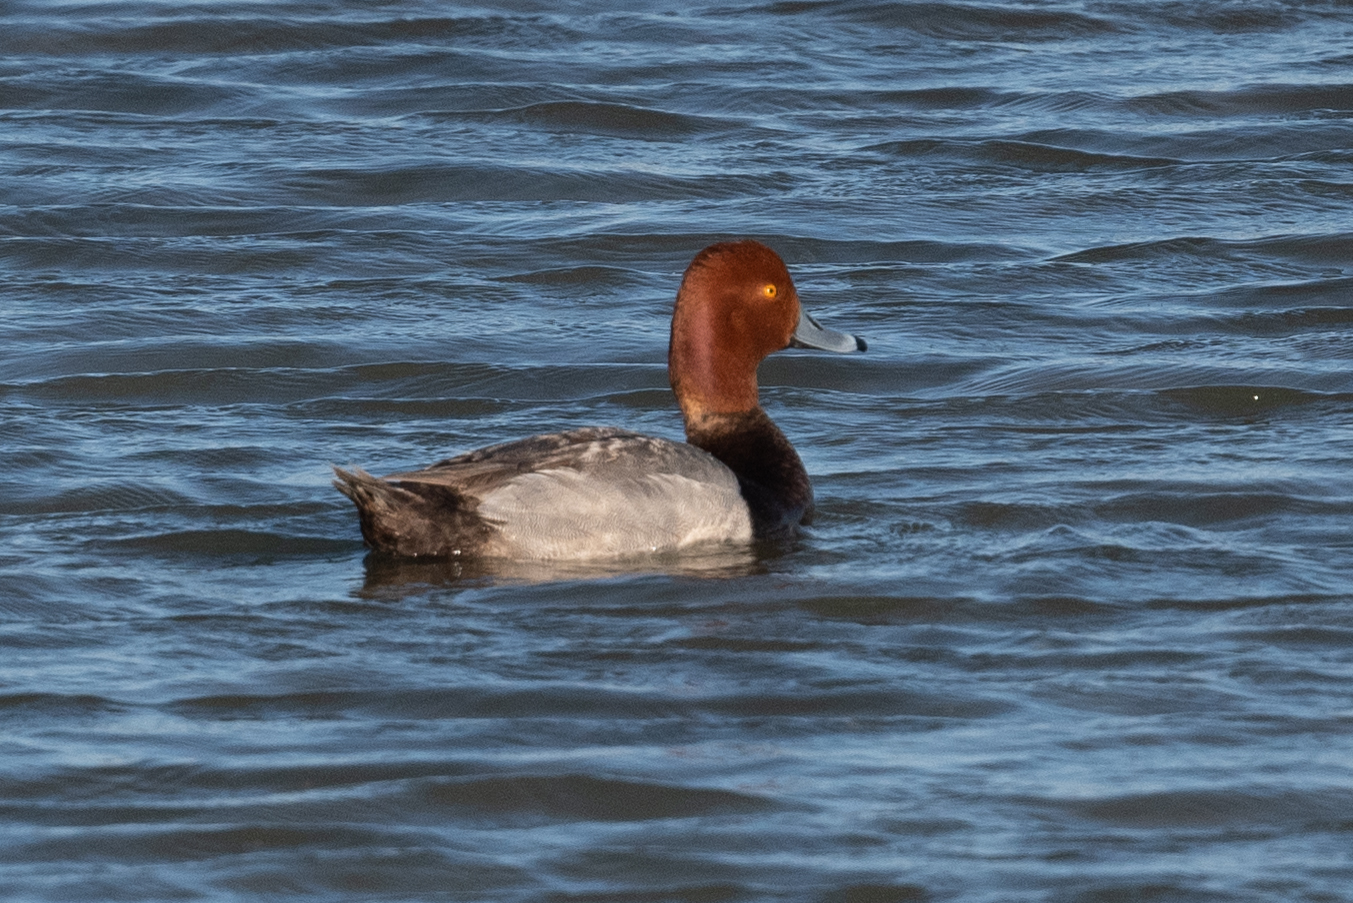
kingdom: Animalia
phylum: Chordata
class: Aves
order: Anseriformes
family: Anatidae
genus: Aythya
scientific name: Aythya americana
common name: Redhead
